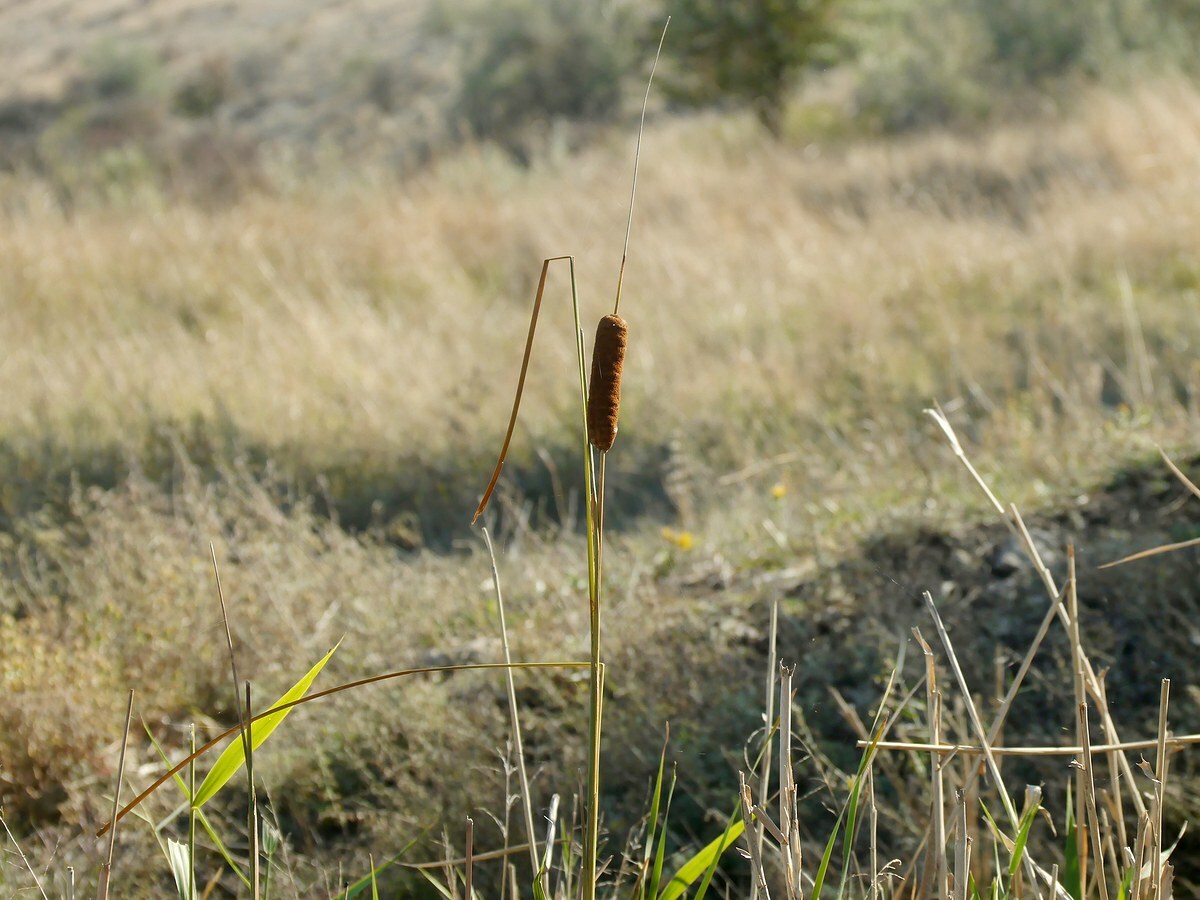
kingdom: Plantae
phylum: Tracheophyta
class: Liliopsida
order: Poales
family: Typhaceae
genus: Typha
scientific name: Typha laxmannii
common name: Laxman’s bulrush
